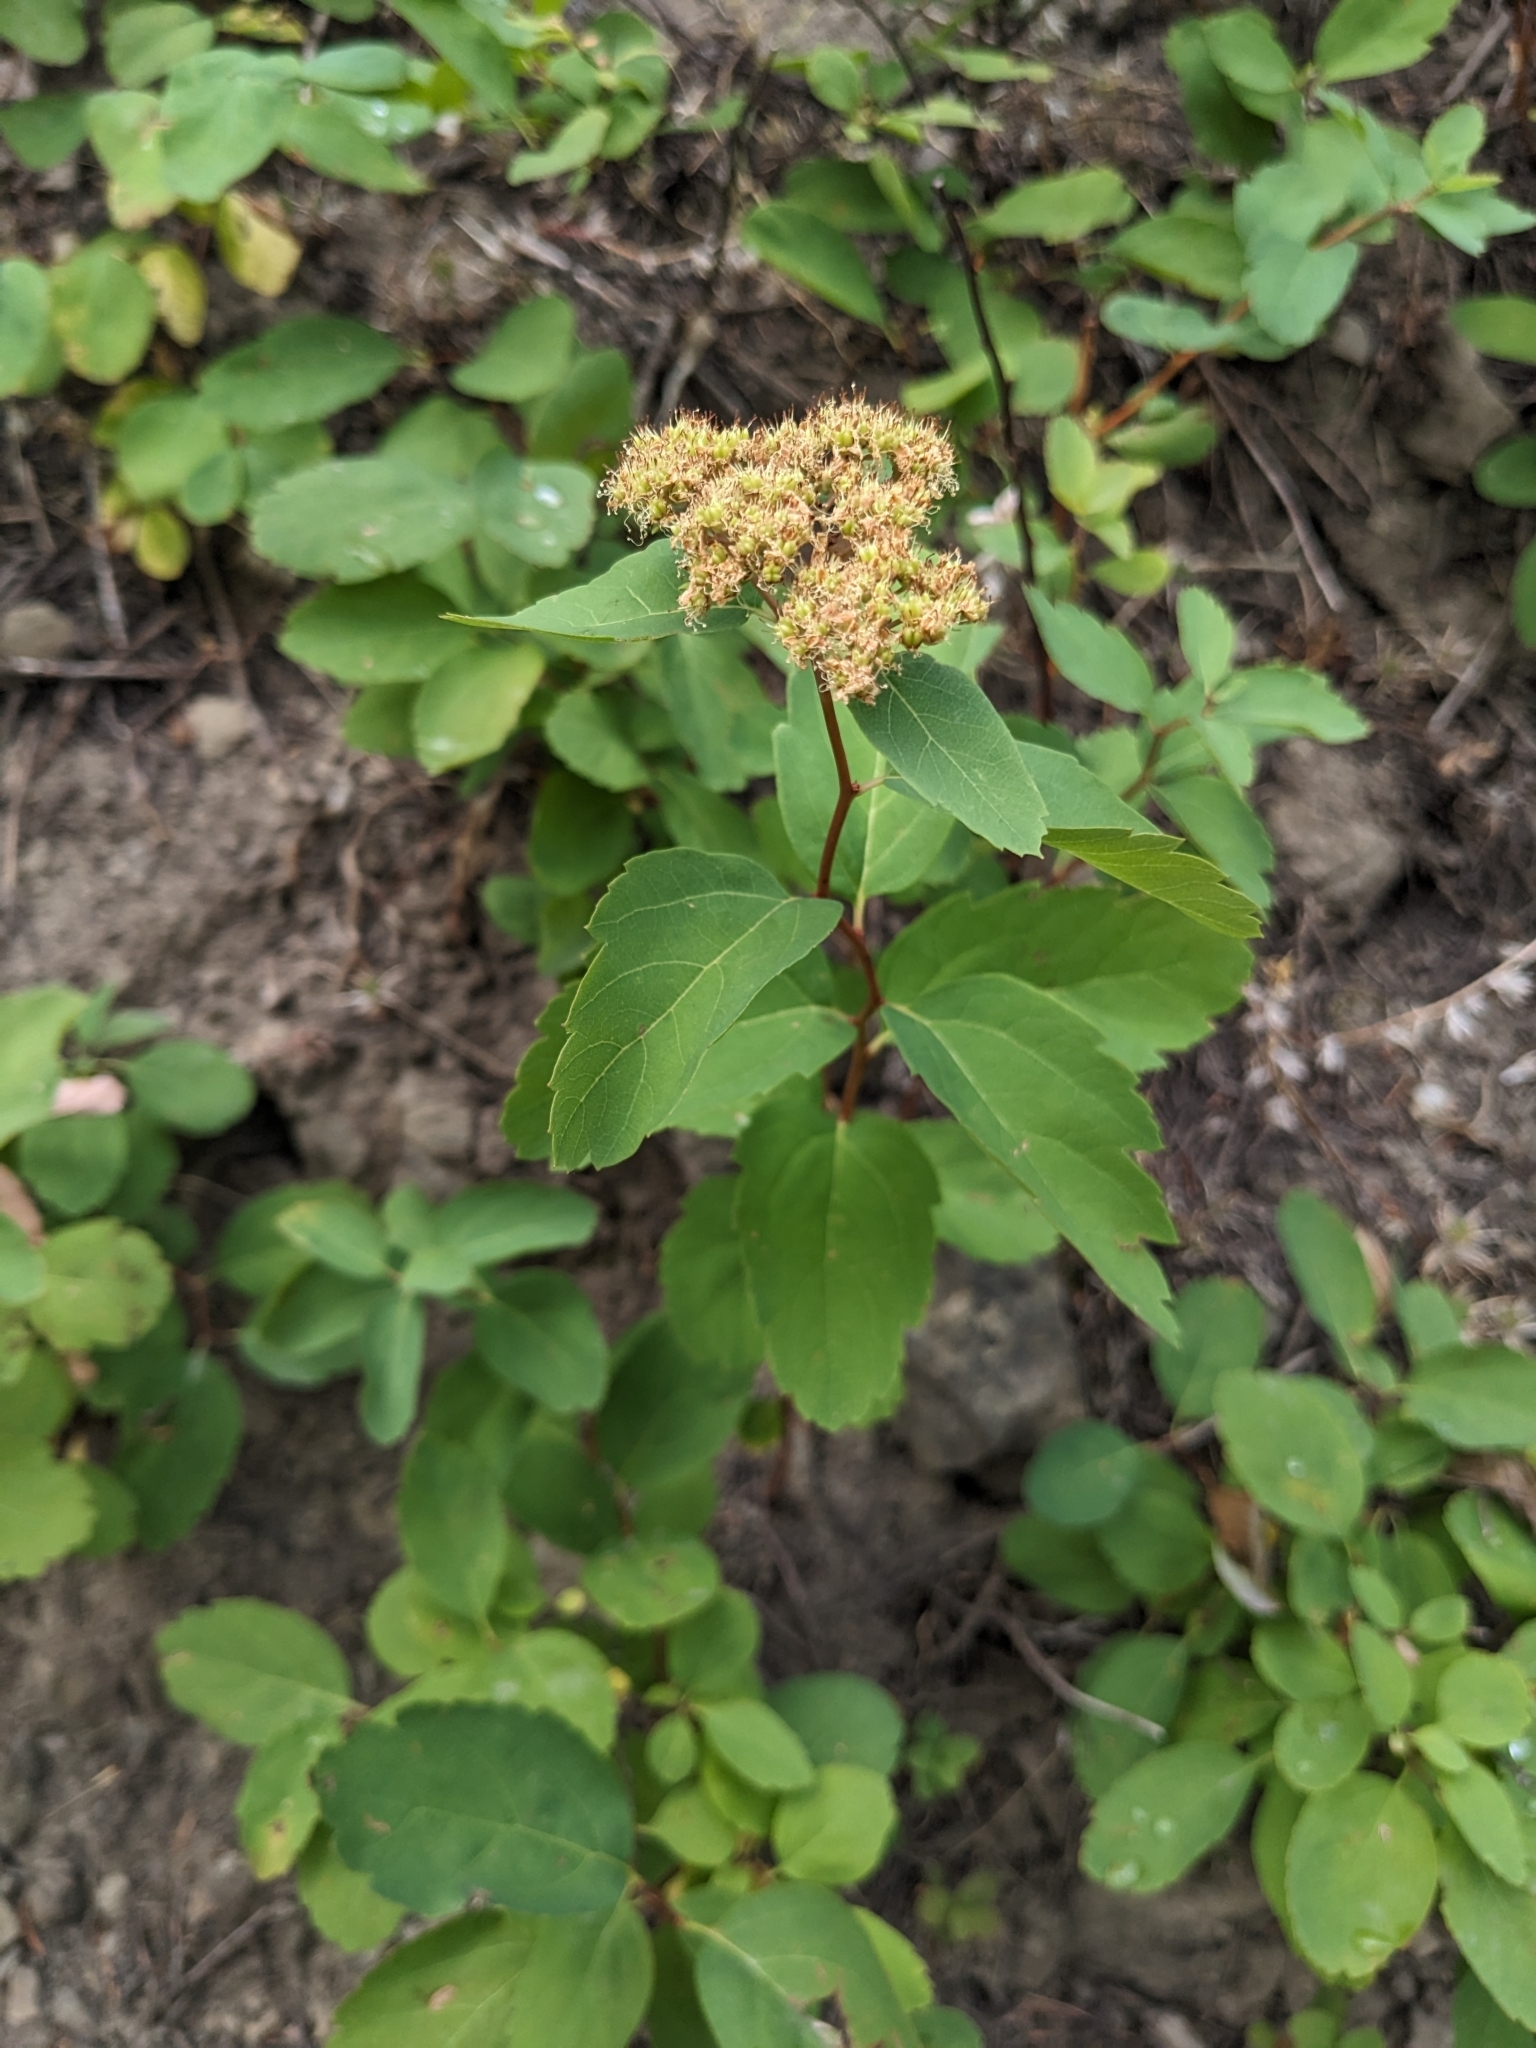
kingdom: Plantae
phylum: Tracheophyta
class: Magnoliopsida
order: Rosales
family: Rosaceae
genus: Spiraea
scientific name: Spiraea lucida
